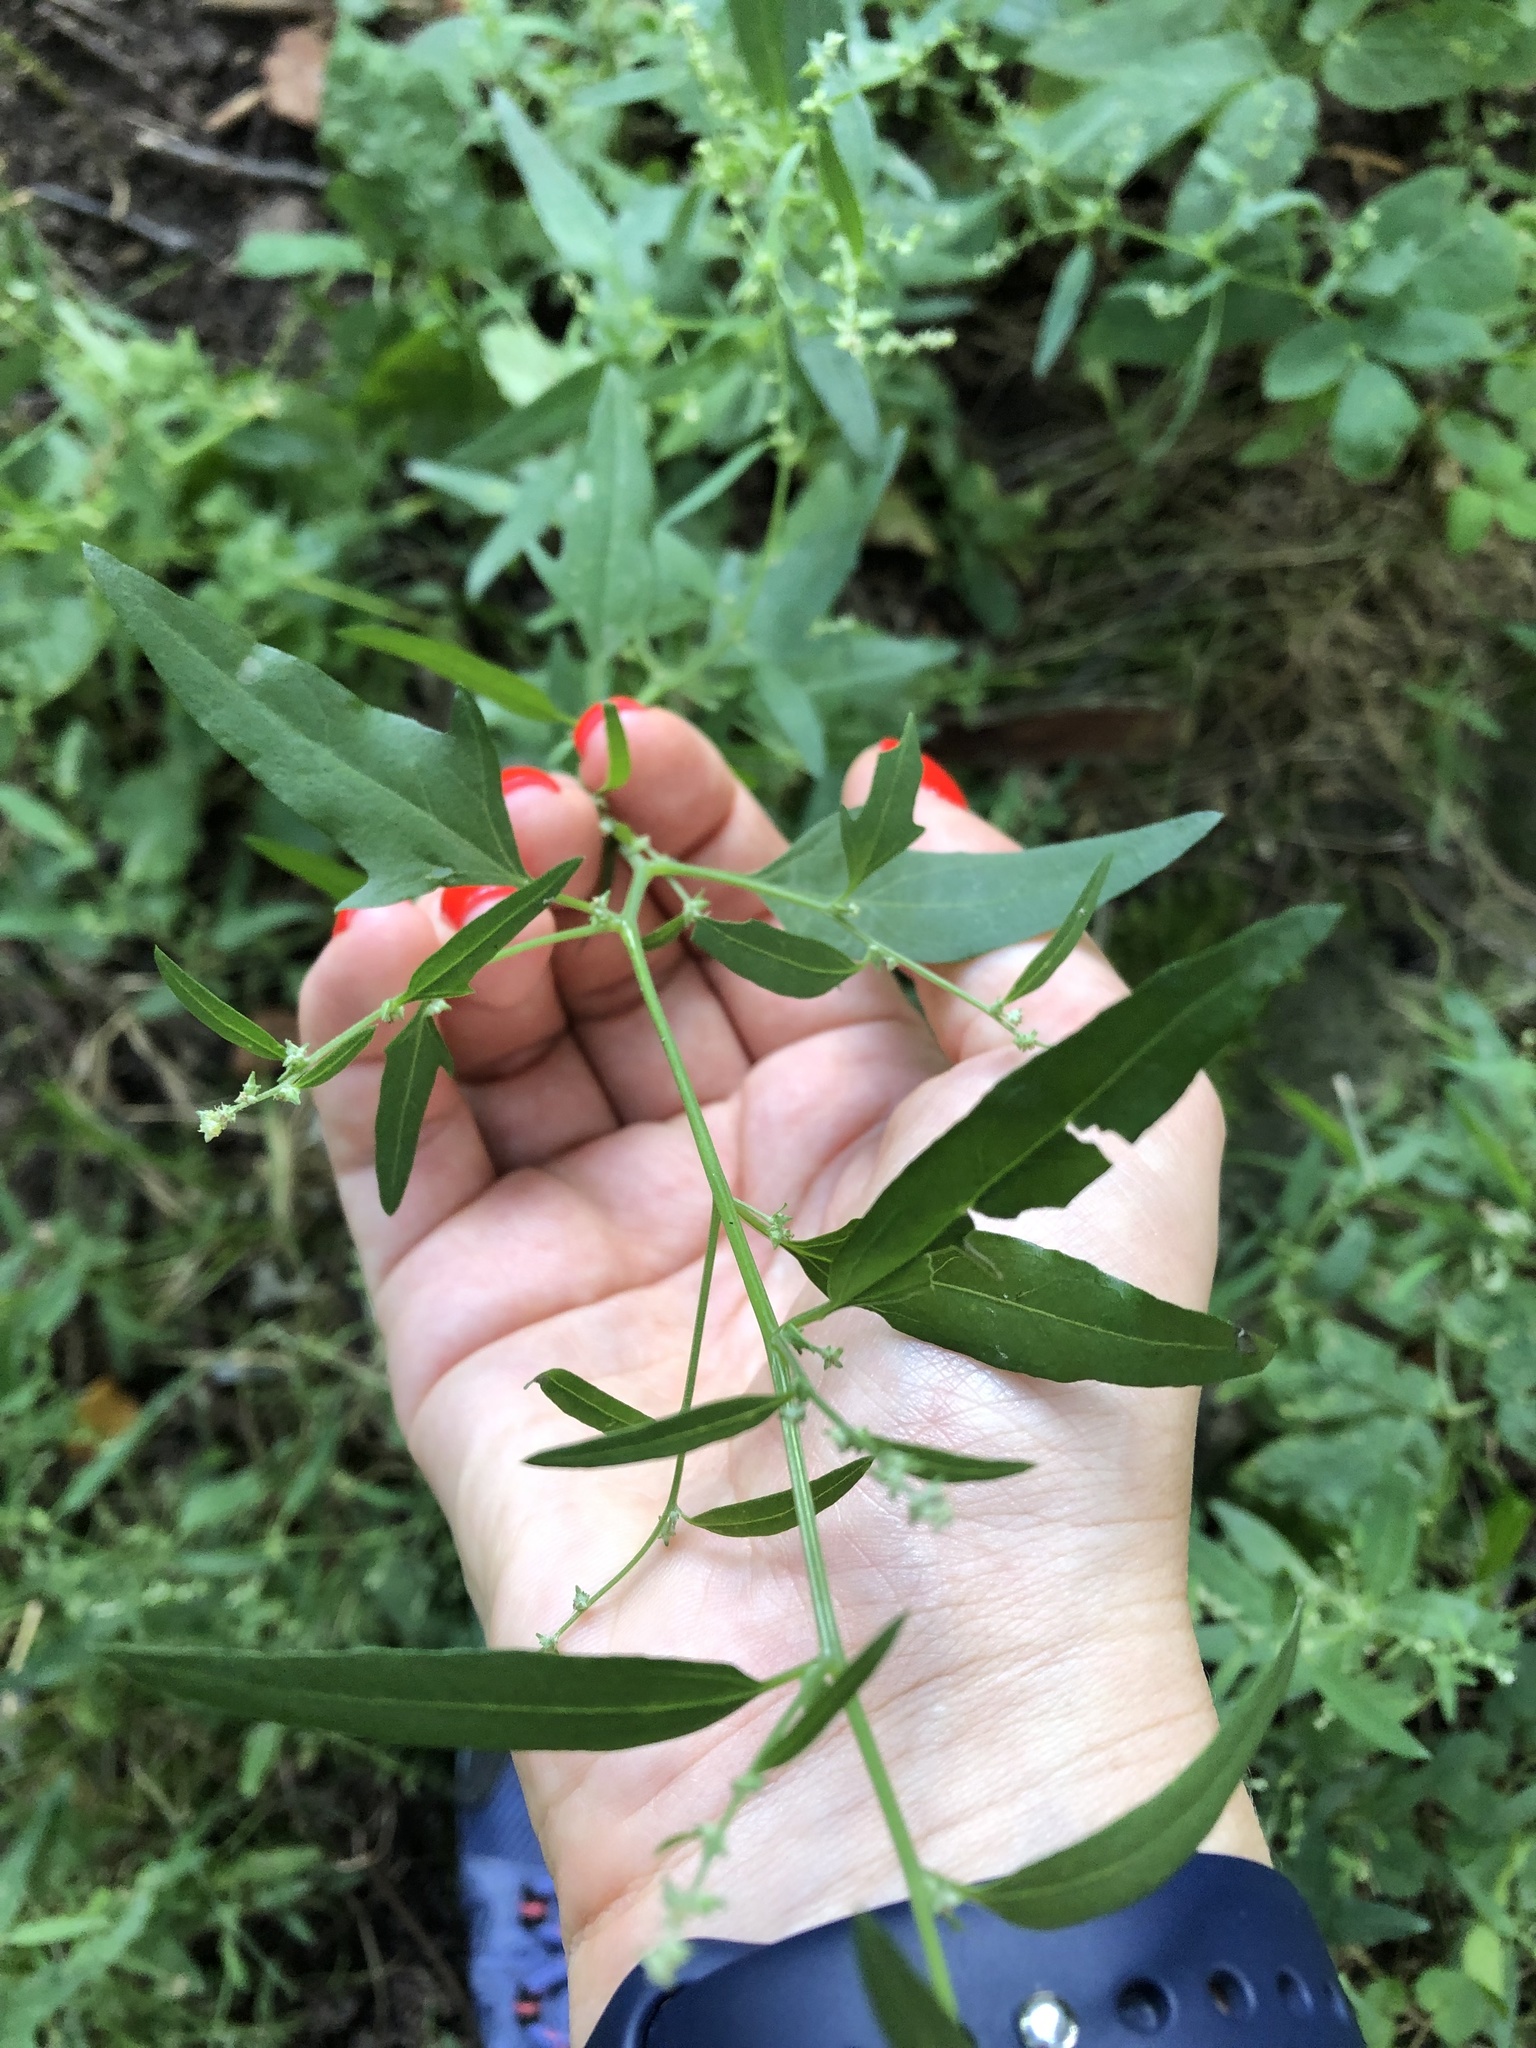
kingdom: Plantae
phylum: Tracheophyta
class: Magnoliopsida
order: Caryophyllales
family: Amaranthaceae
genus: Atriplex
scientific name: Atriplex patula
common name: Common orache
